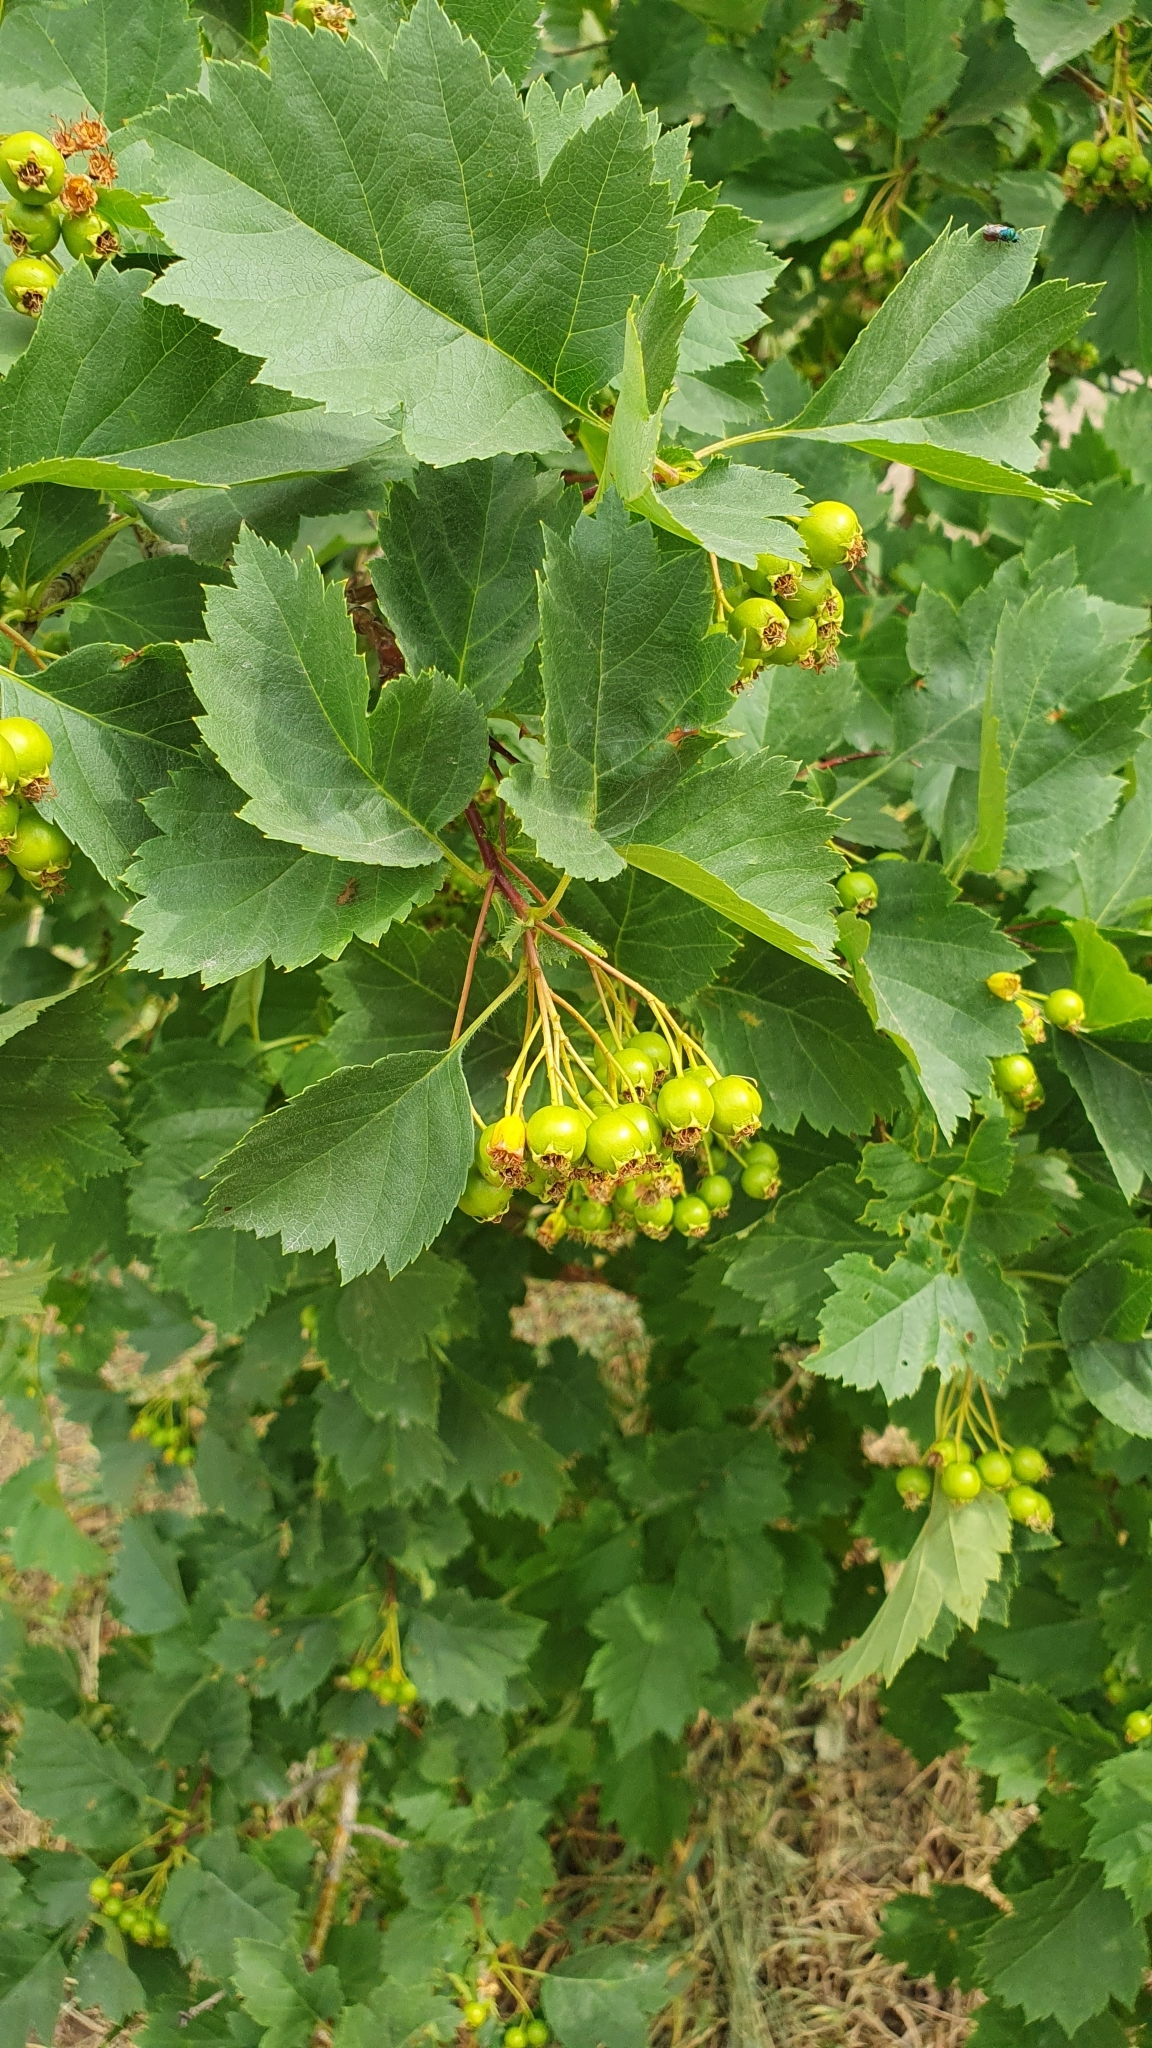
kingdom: Plantae
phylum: Tracheophyta
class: Magnoliopsida
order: Rosales
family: Rosaceae
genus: Crataegus
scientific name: Crataegus sanguinea
